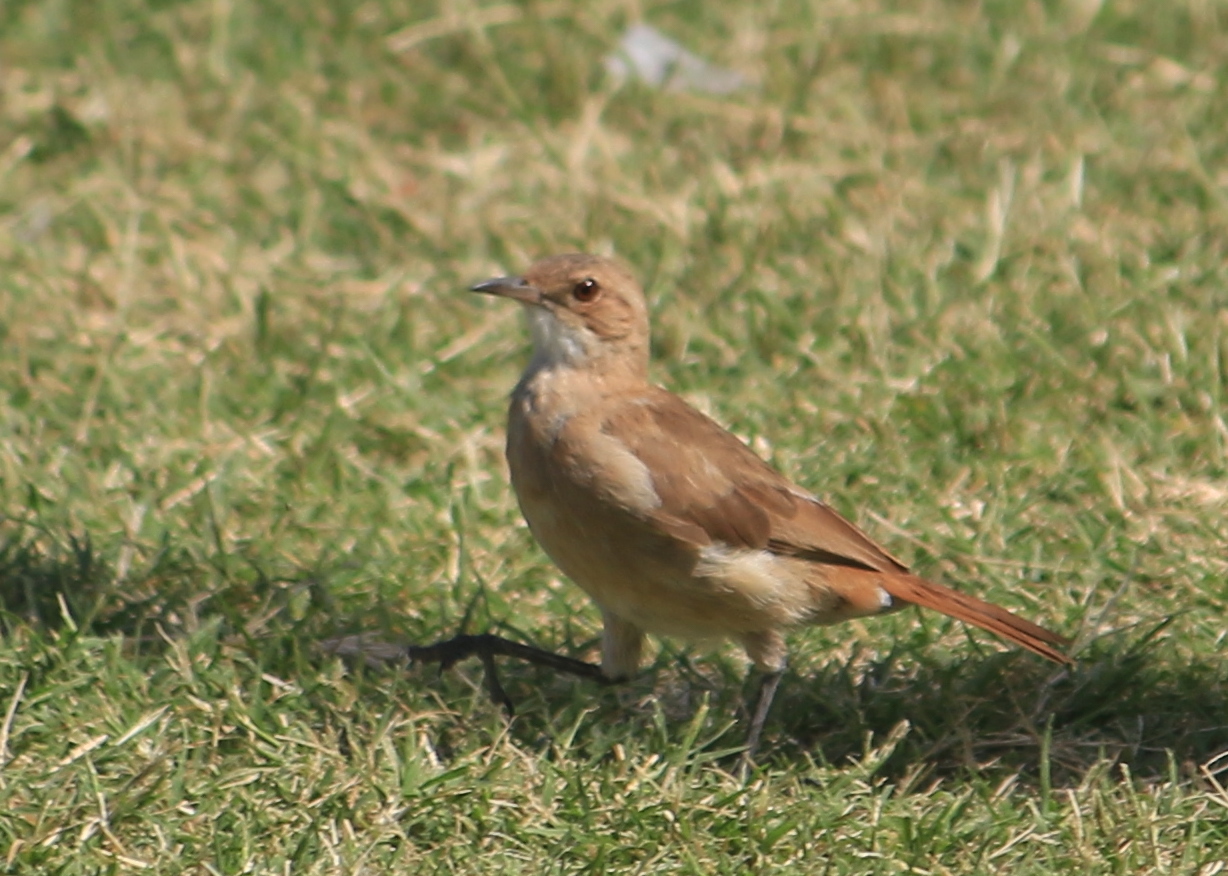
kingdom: Animalia
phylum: Chordata
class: Aves
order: Passeriformes
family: Furnariidae
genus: Furnarius
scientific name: Furnarius rufus
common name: Rufous hornero
